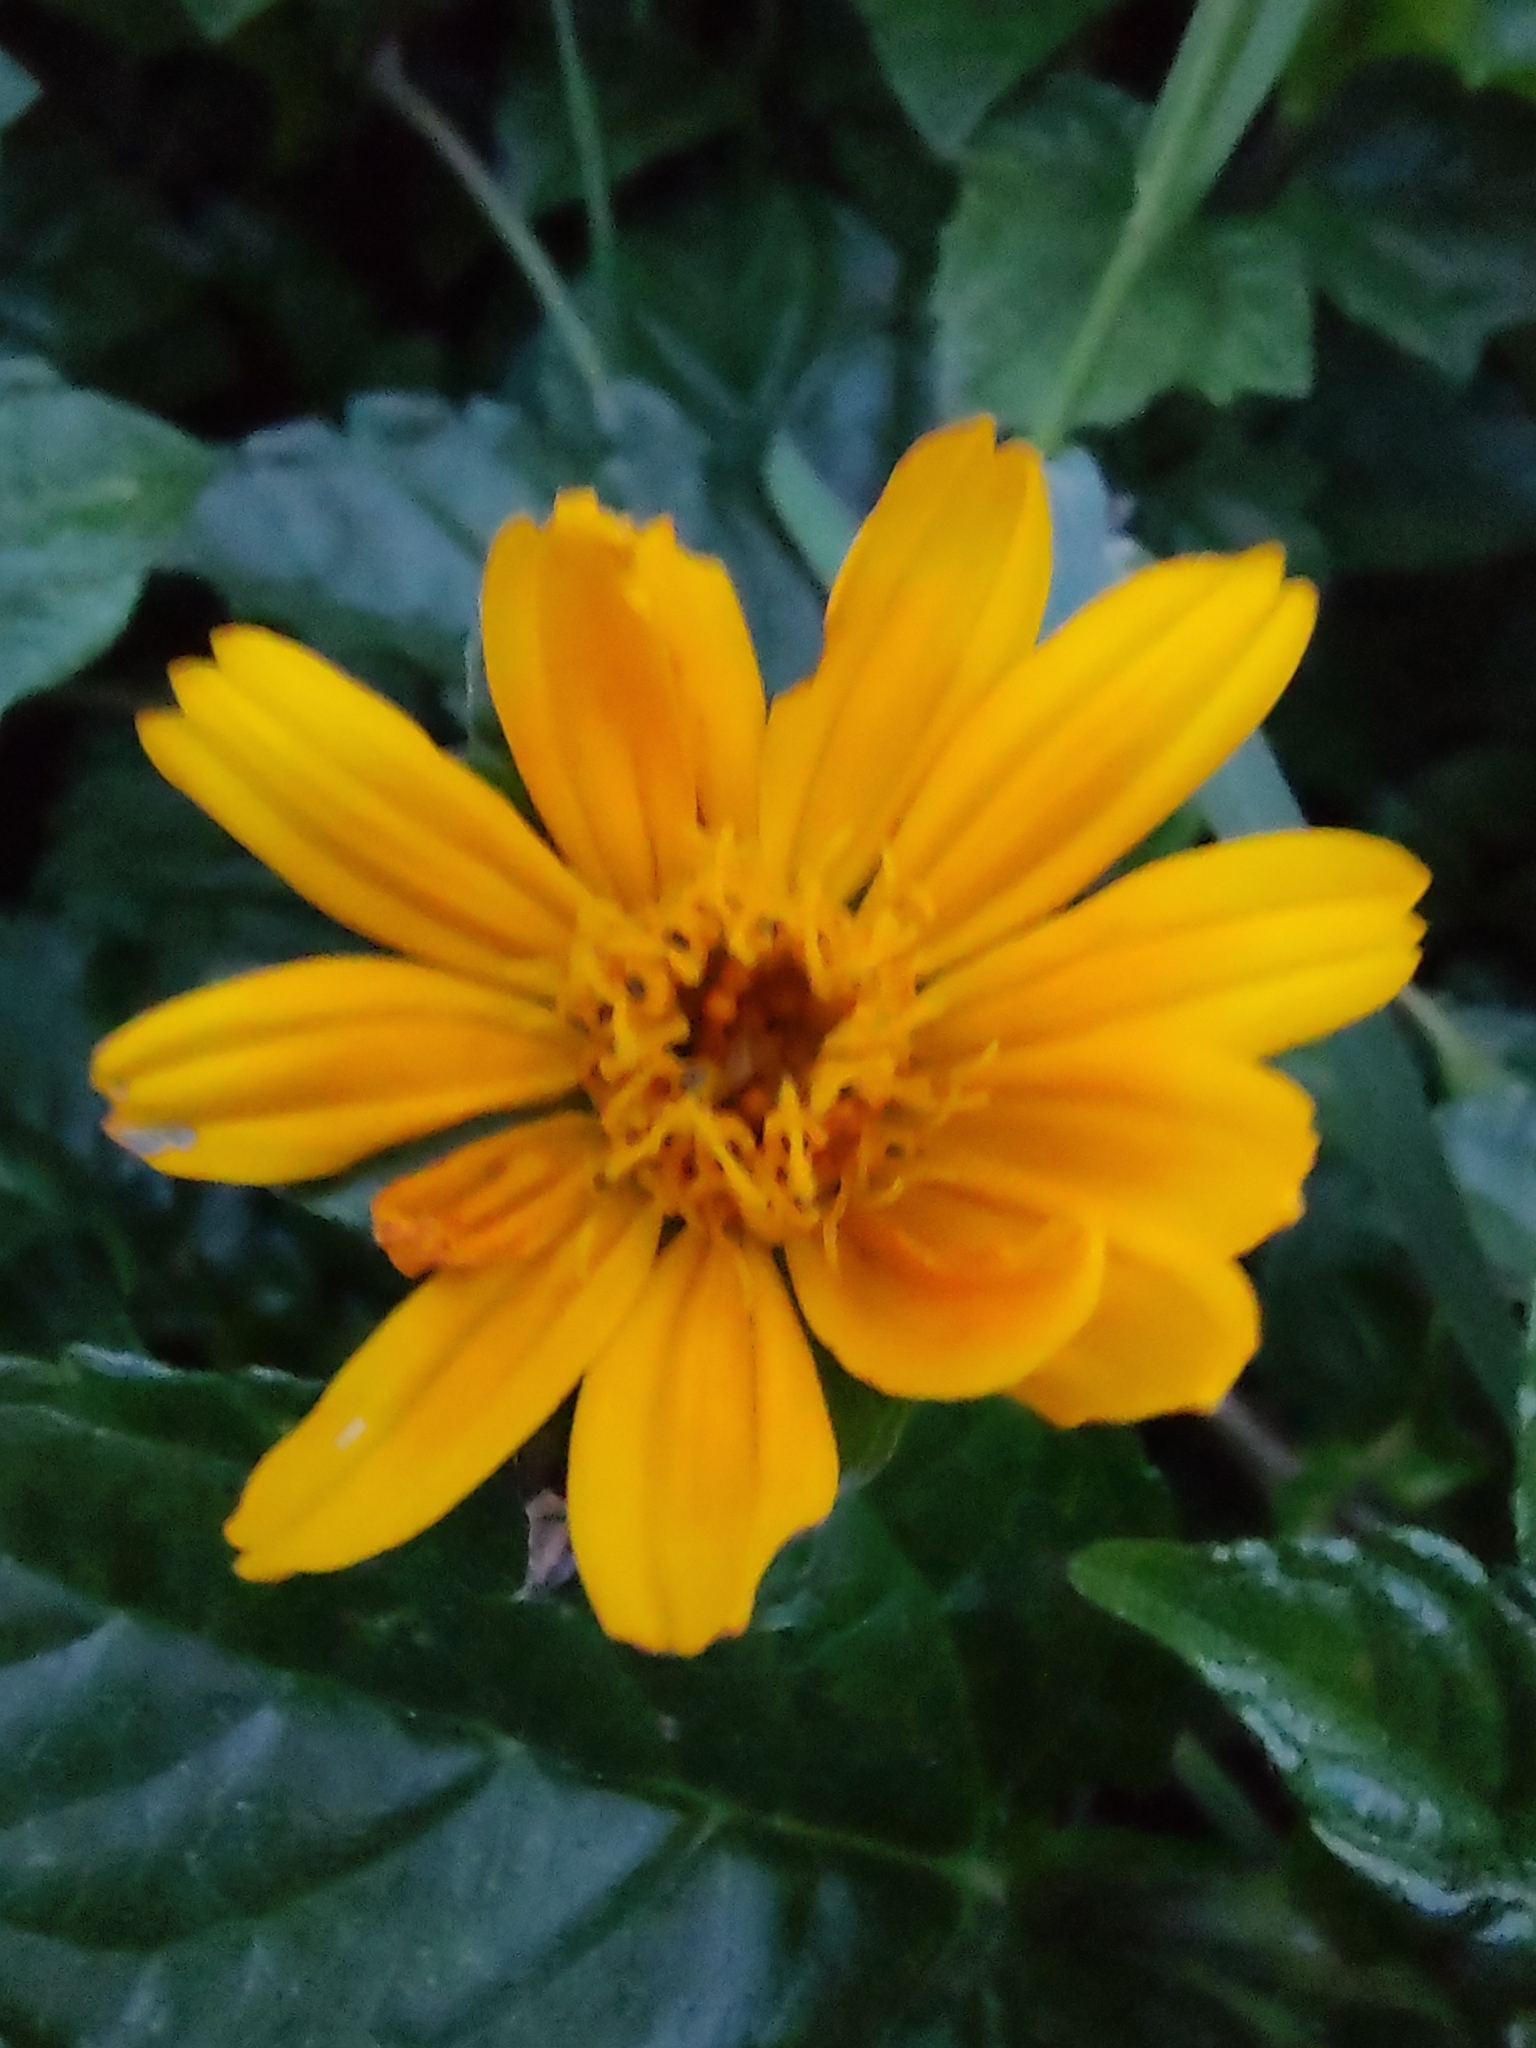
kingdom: Plantae
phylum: Tracheophyta
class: Magnoliopsida
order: Asterales
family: Asteraceae
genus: Sphagneticola
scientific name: Sphagneticola trilobata
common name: Bay biscayne creeping-oxeye
